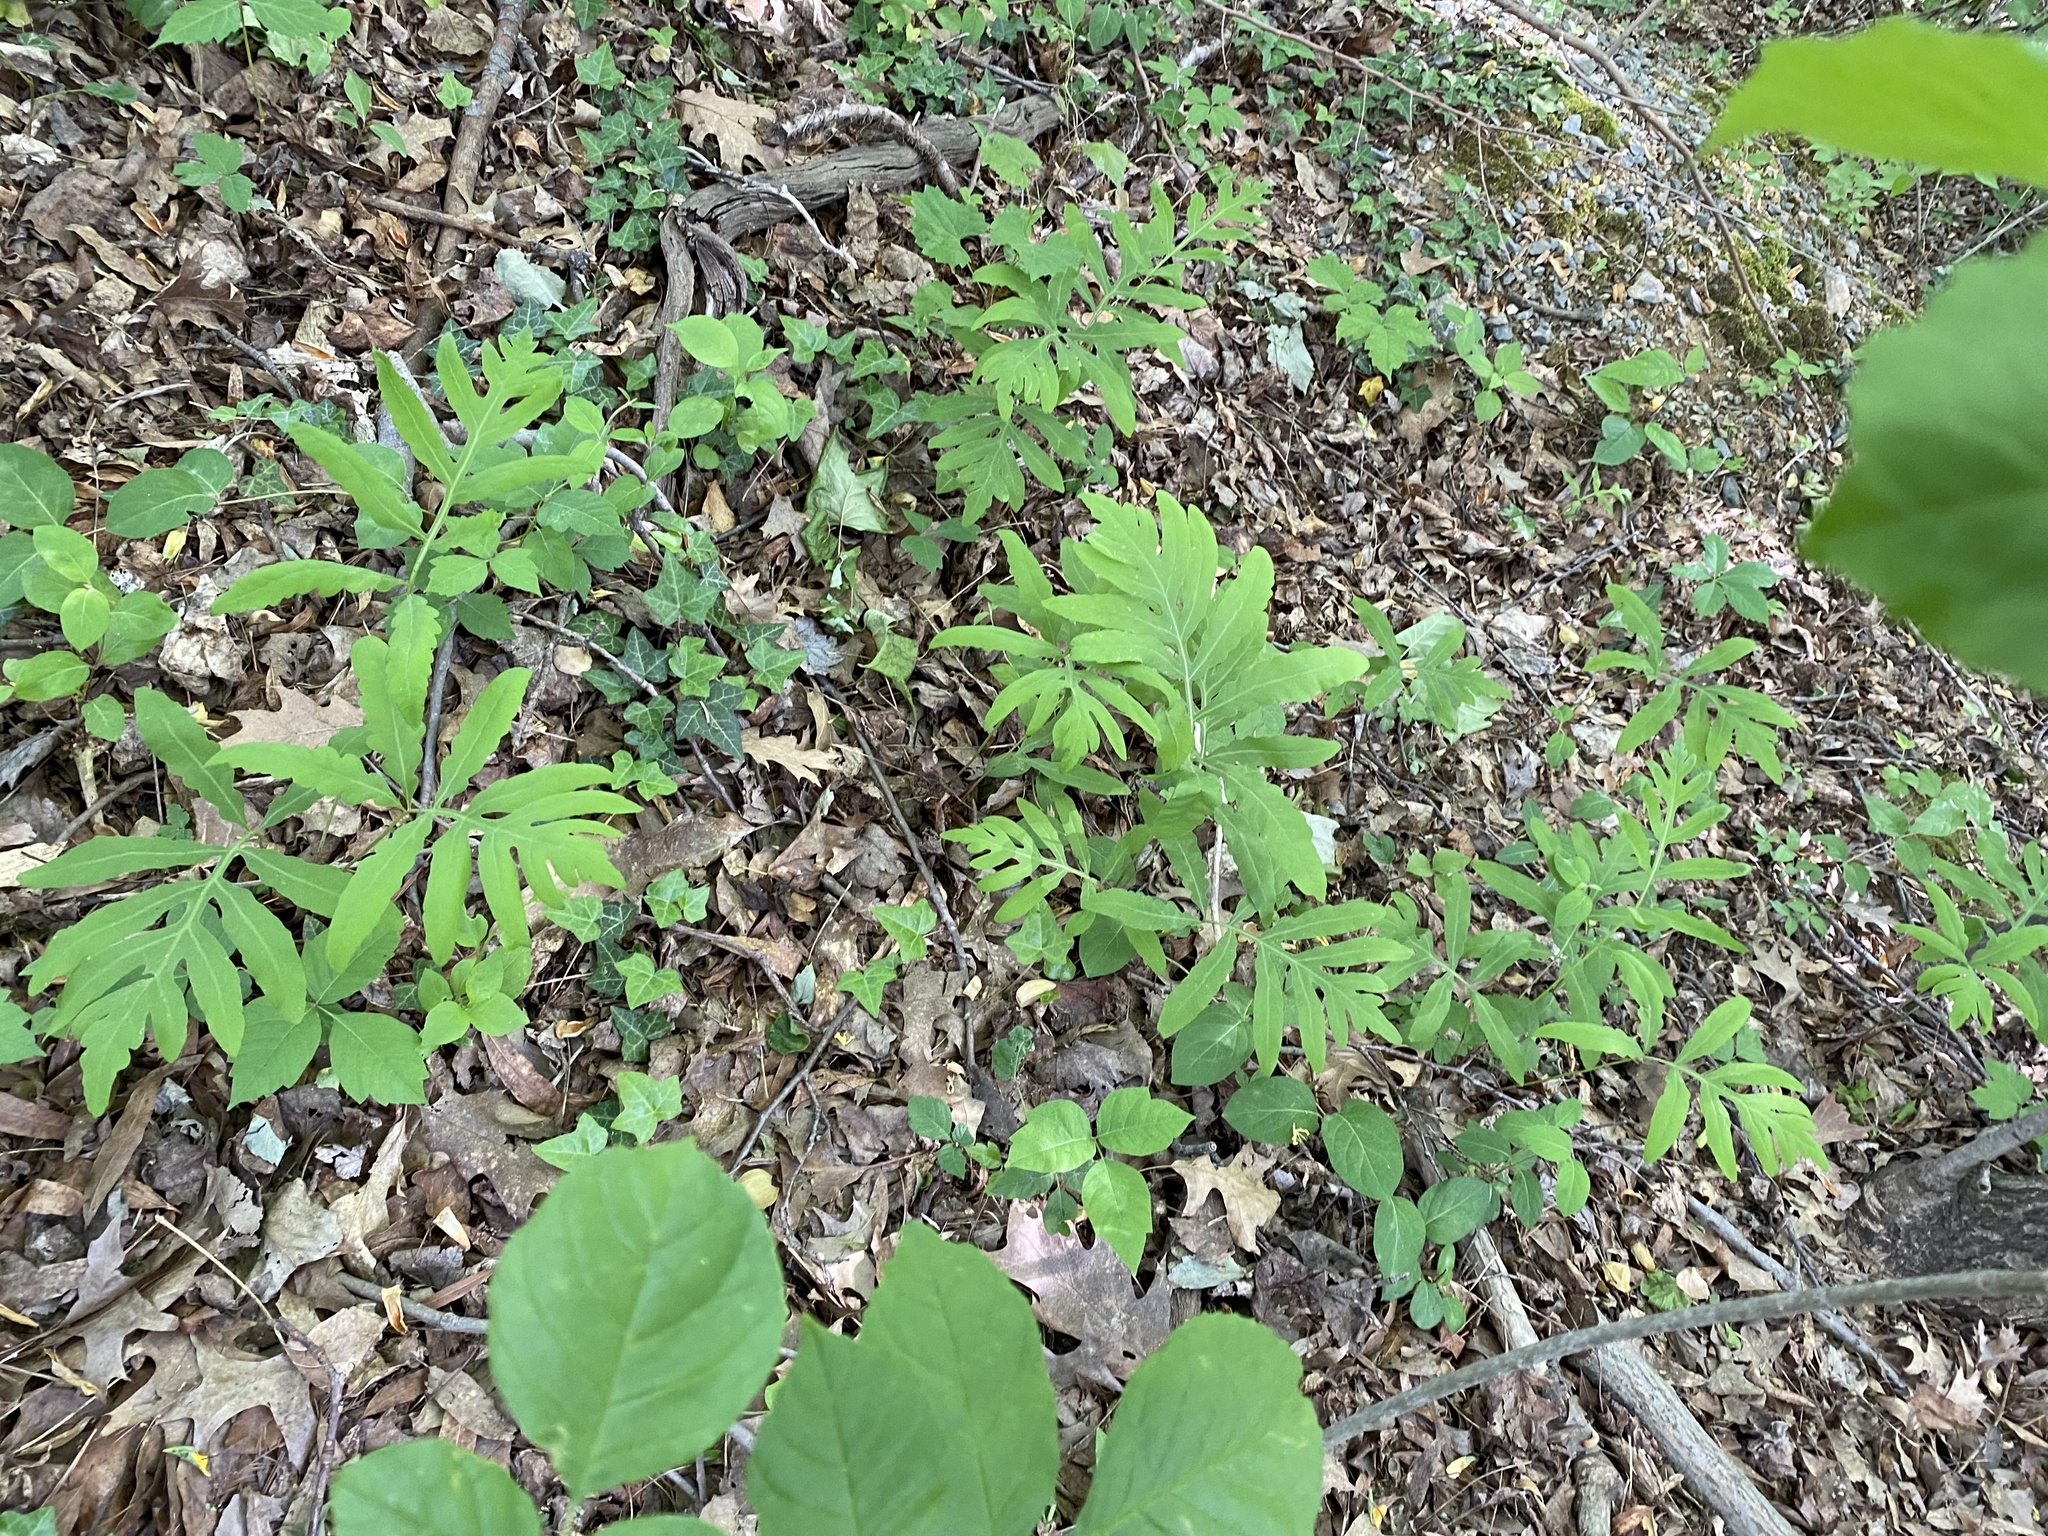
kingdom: Plantae
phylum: Tracheophyta
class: Polypodiopsida
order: Polypodiales
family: Onocleaceae
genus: Onoclea
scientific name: Onoclea sensibilis
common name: Sensitive fern
